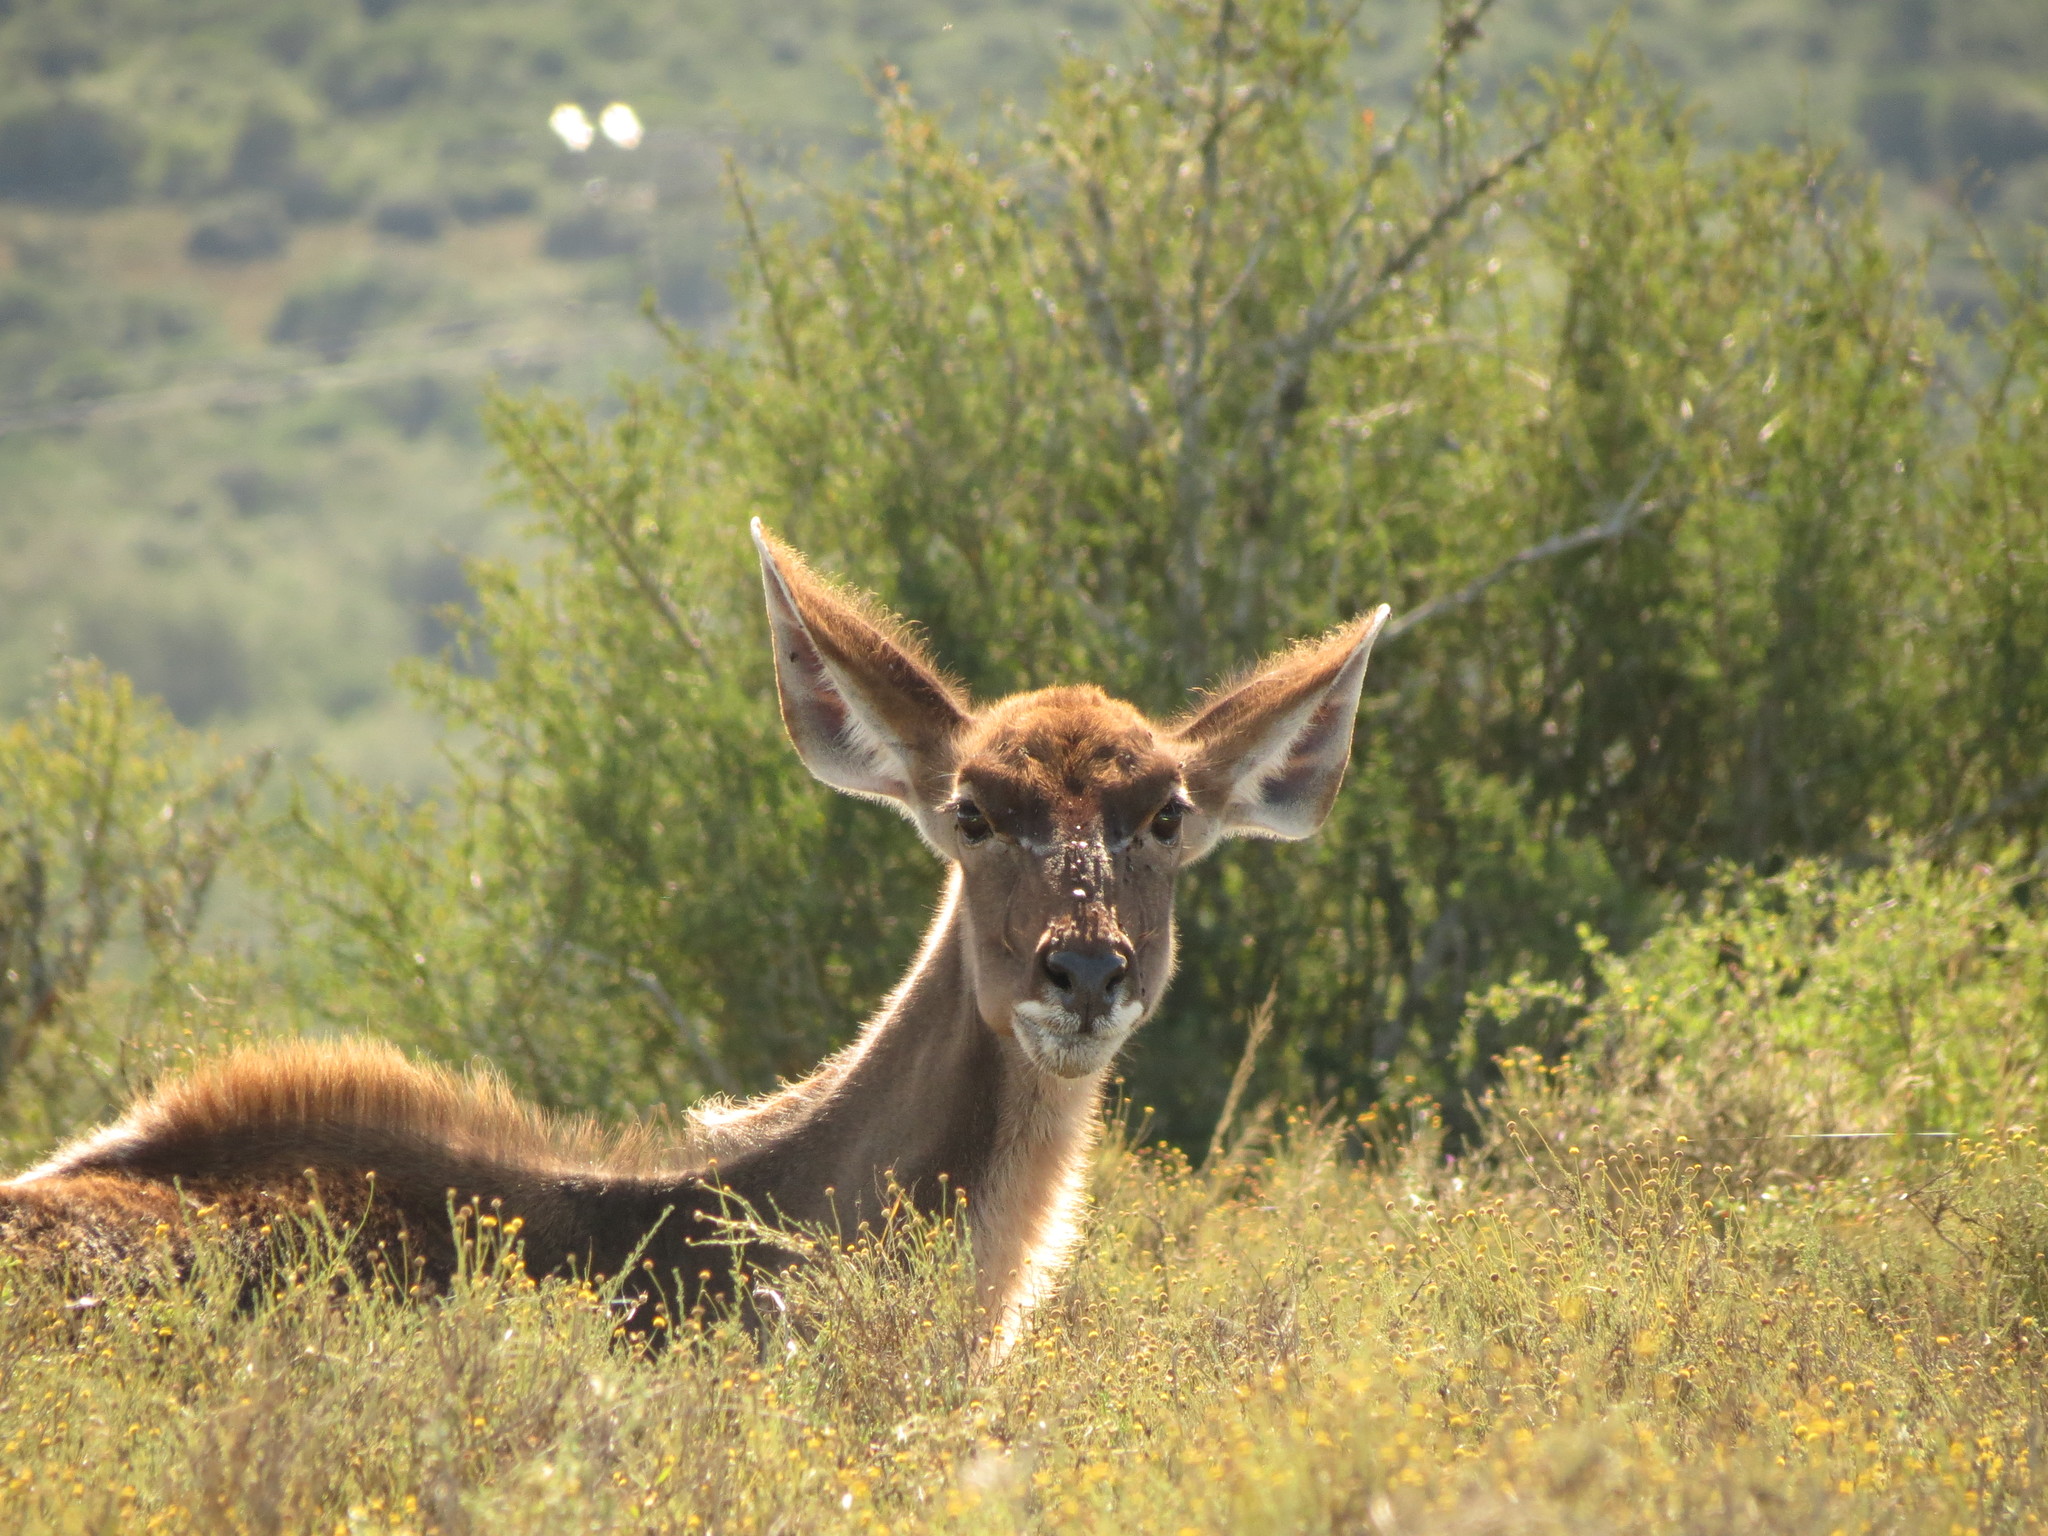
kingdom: Animalia
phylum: Chordata
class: Mammalia
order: Artiodactyla
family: Bovidae
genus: Tragelaphus
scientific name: Tragelaphus strepsiceros
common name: Greater kudu
